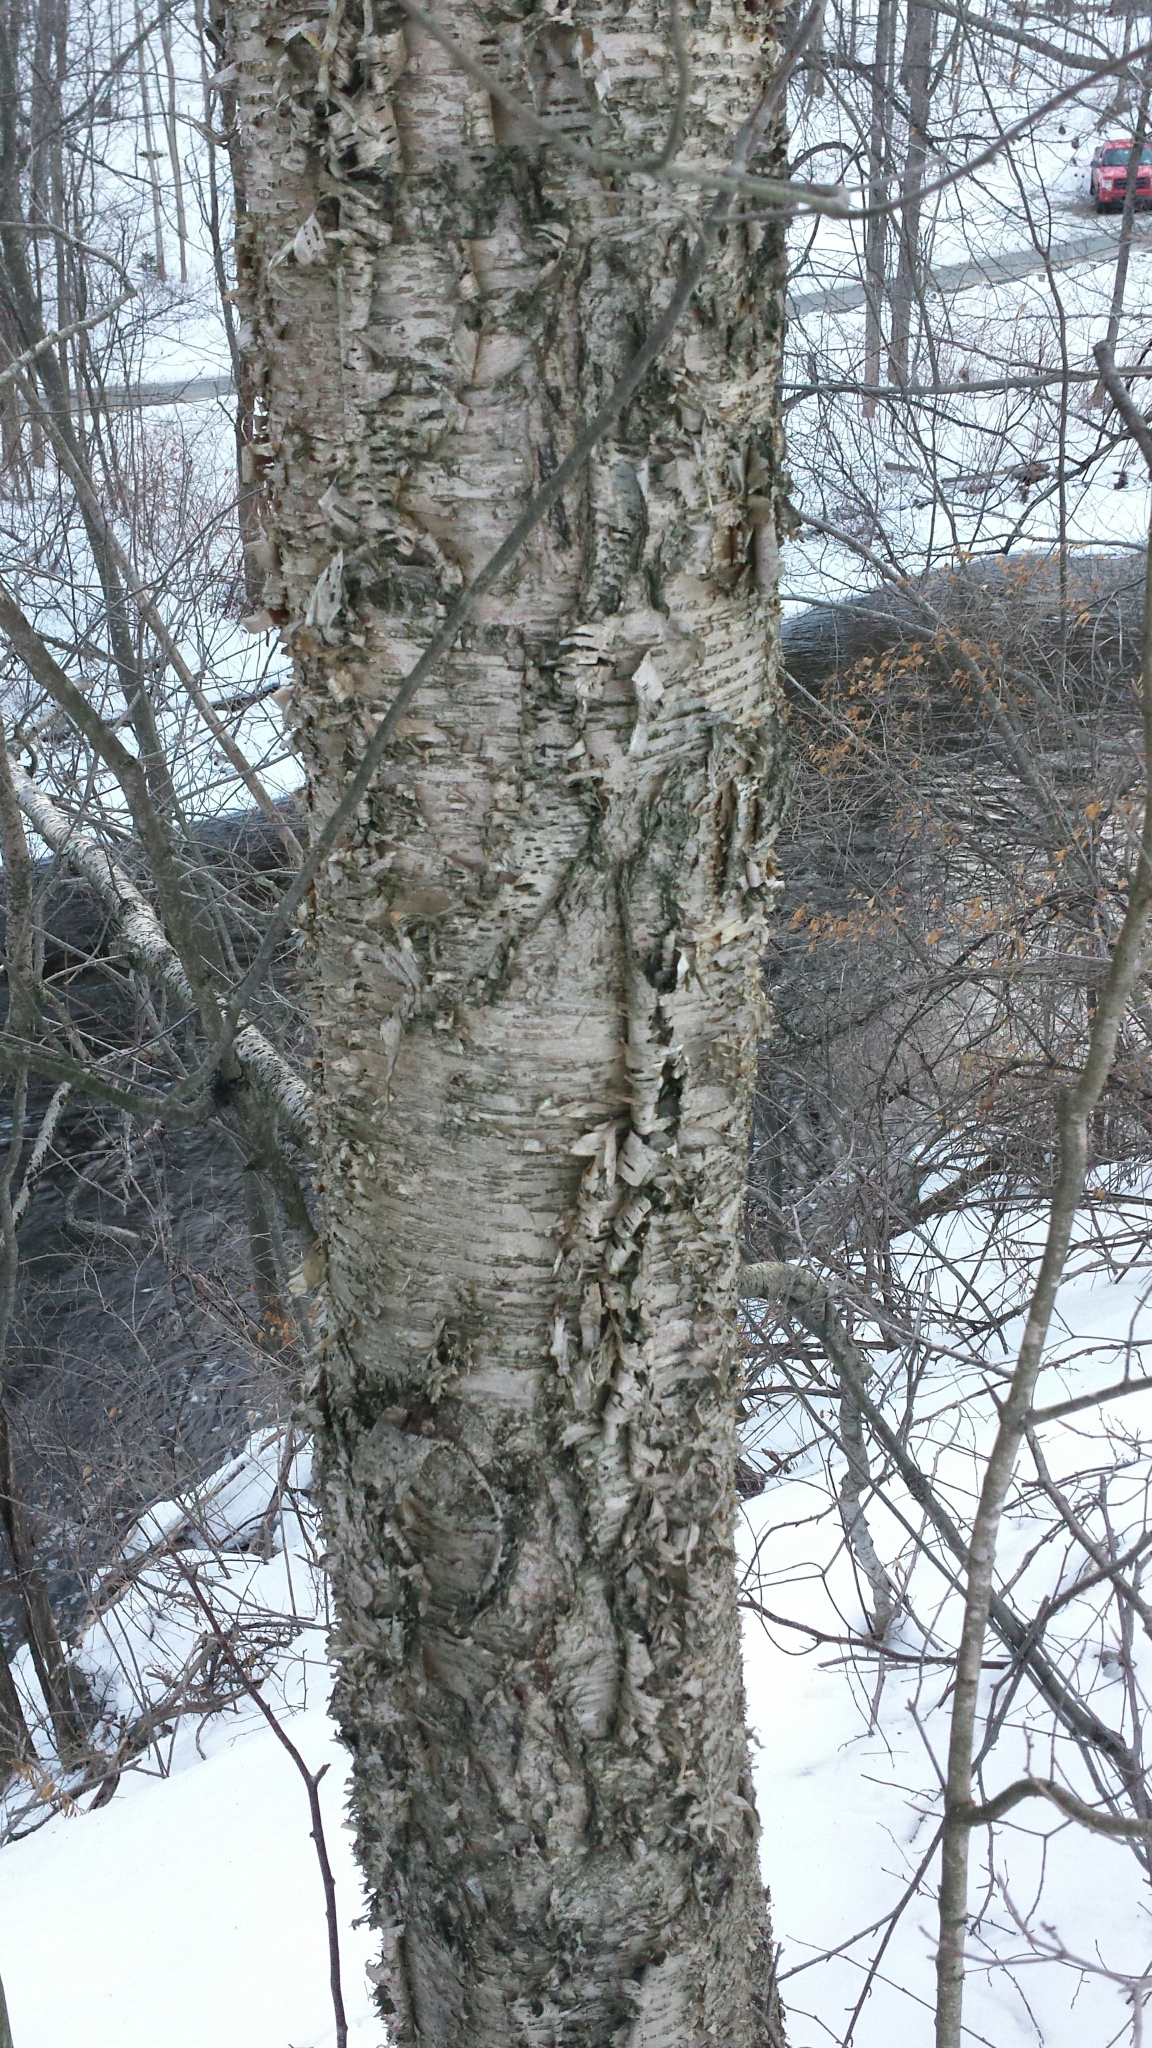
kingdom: Plantae
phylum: Tracheophyta
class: Magnoliopsida
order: Fagales
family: Betulaceae
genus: Betula
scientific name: Betula alleghaniensis
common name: Yellow birch
